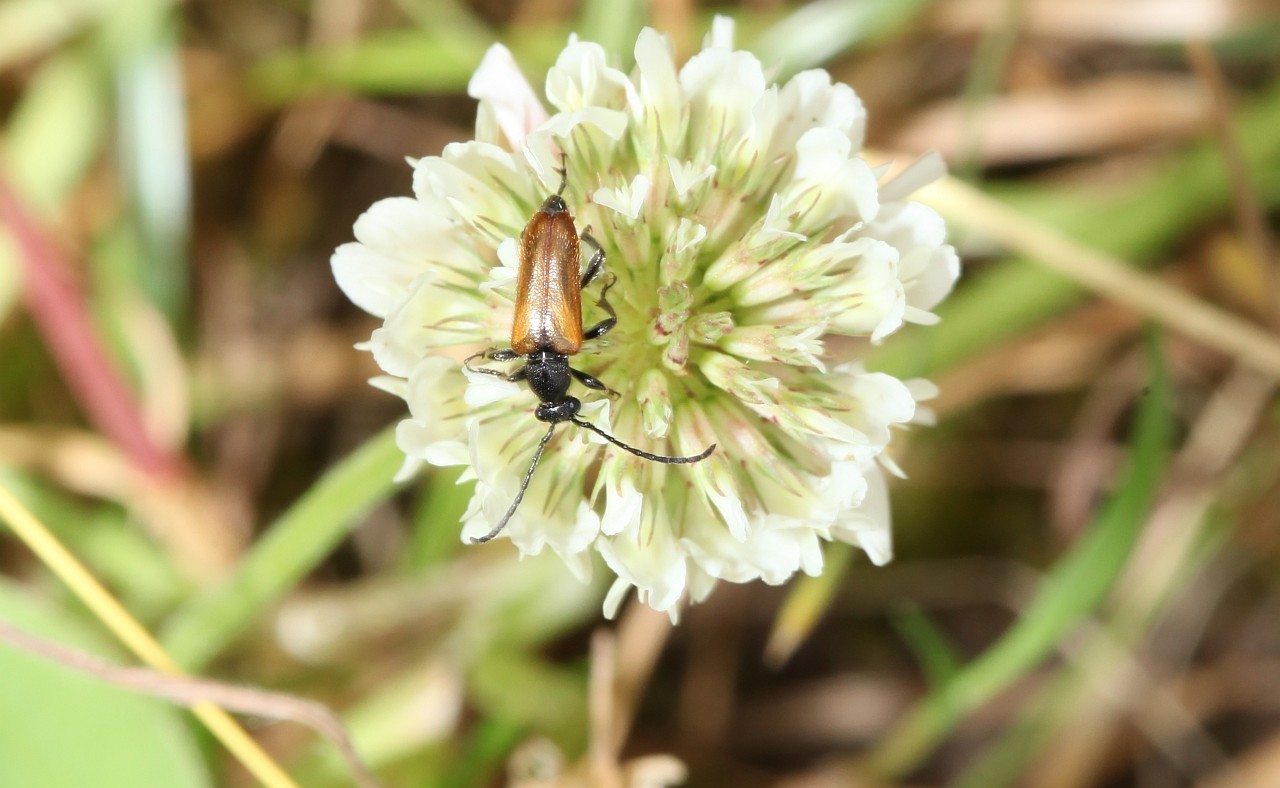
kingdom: Animalia
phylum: Arthropoda
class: Insecta
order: Coleoptera
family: Cerambycidae
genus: Pseudovadonia
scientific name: Pseudovadonia livida
